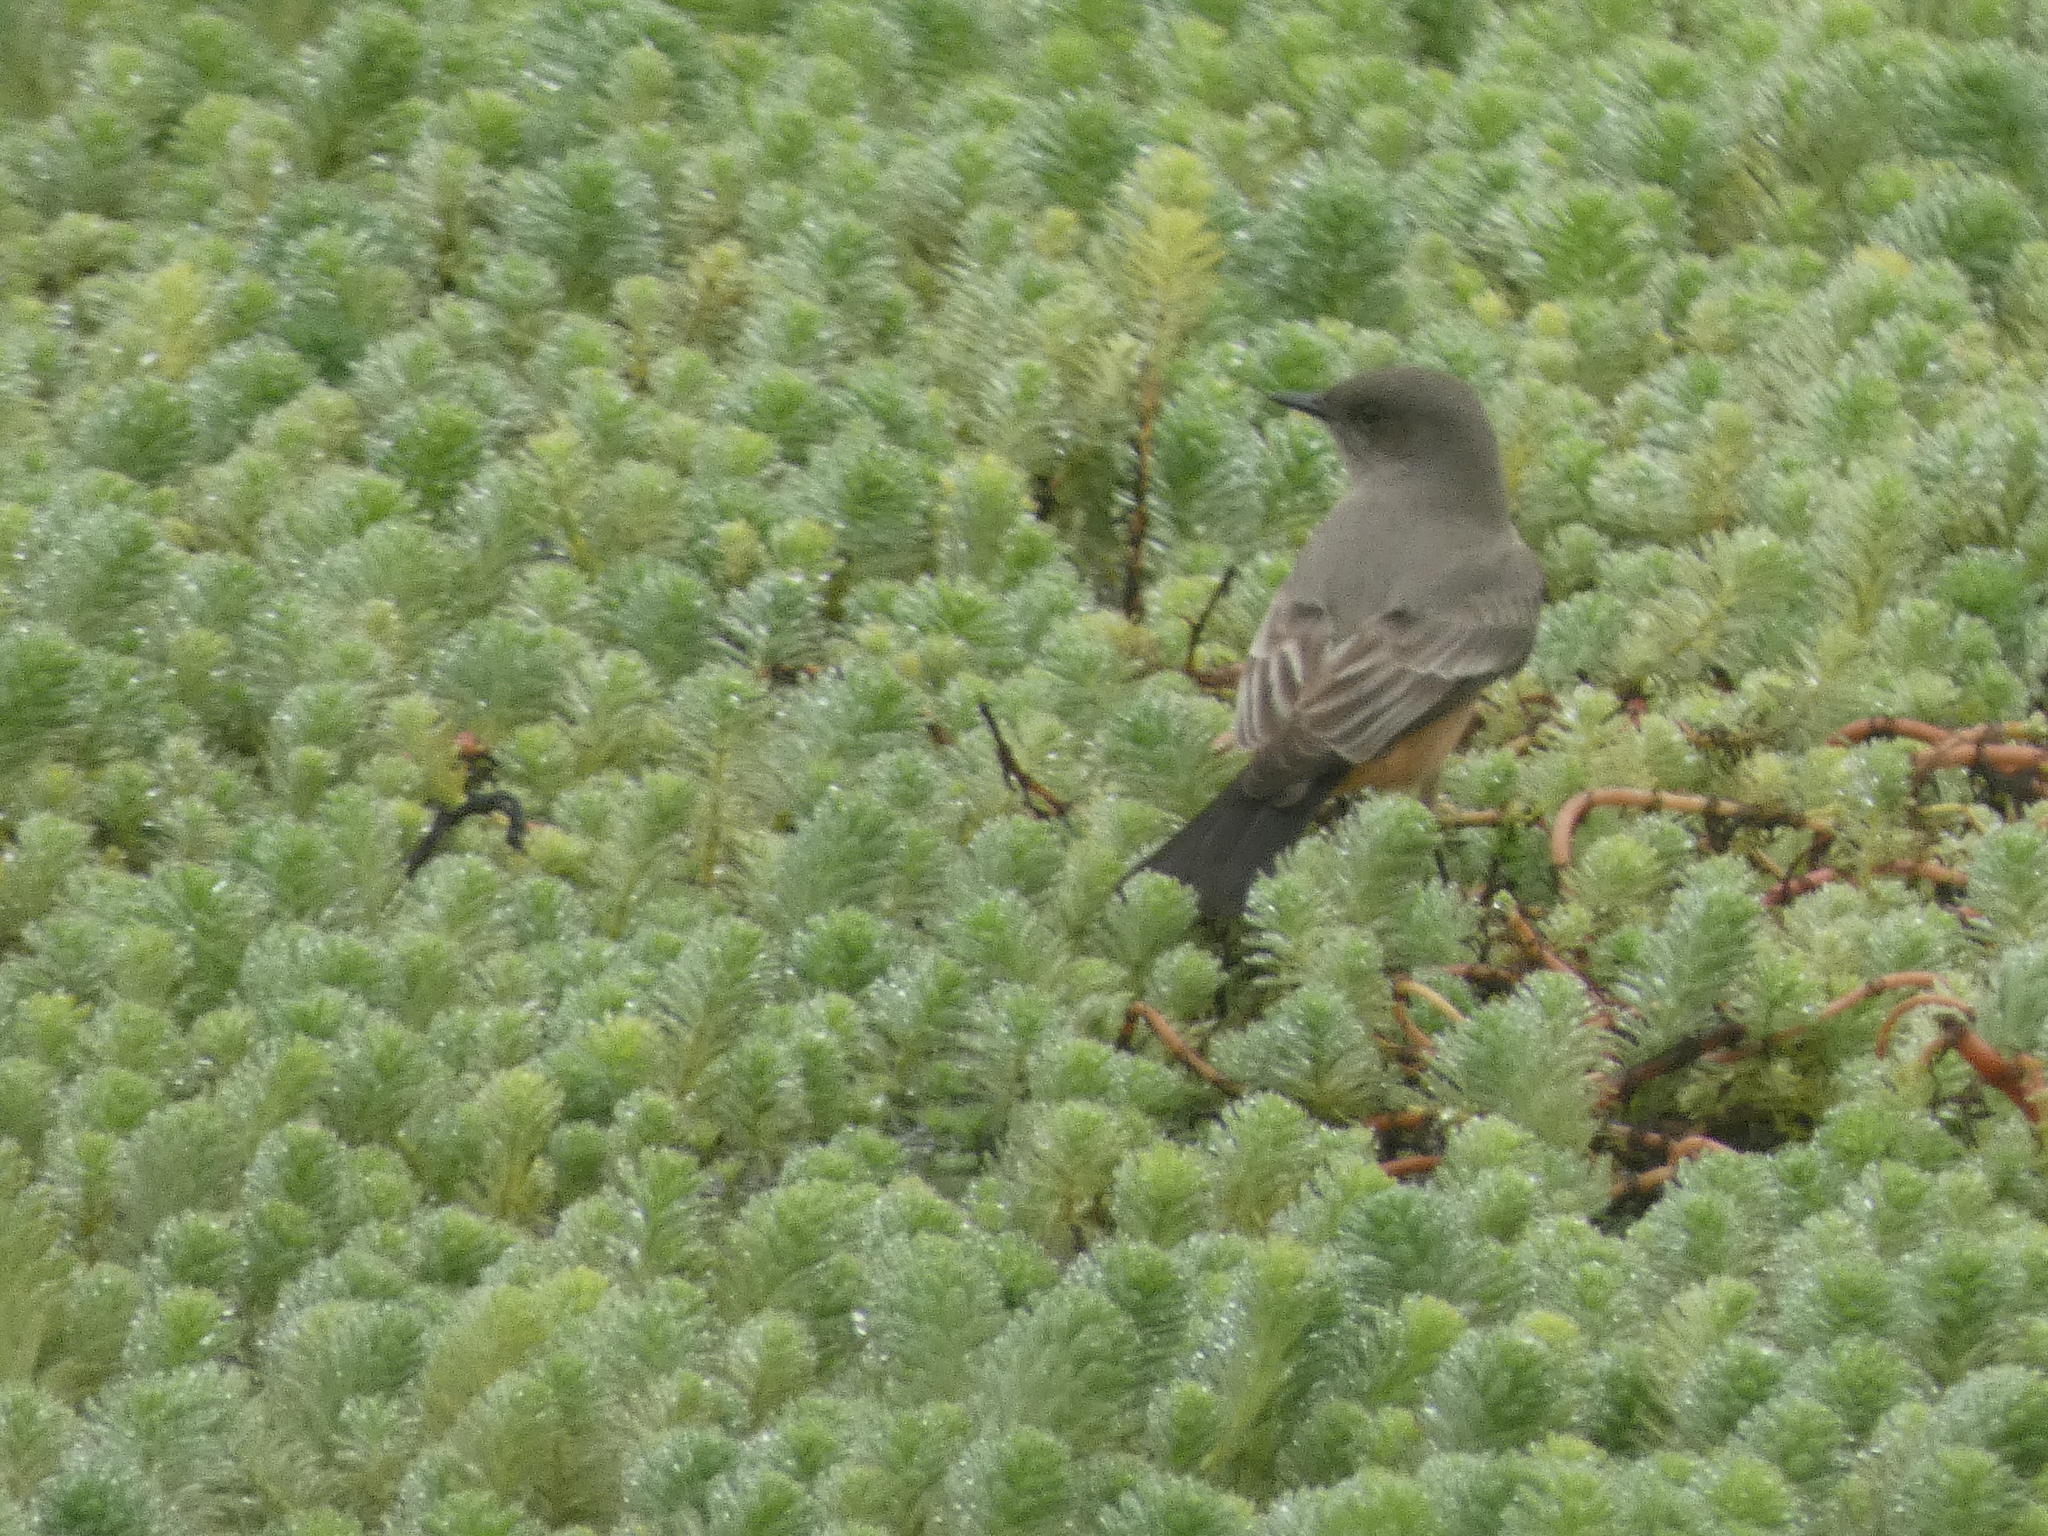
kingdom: Animalia
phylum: Chordata
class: Aves
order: Passeriformes
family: Tyrannidae
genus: Sayornis
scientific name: Sayornis saya
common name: Say's phoebe
